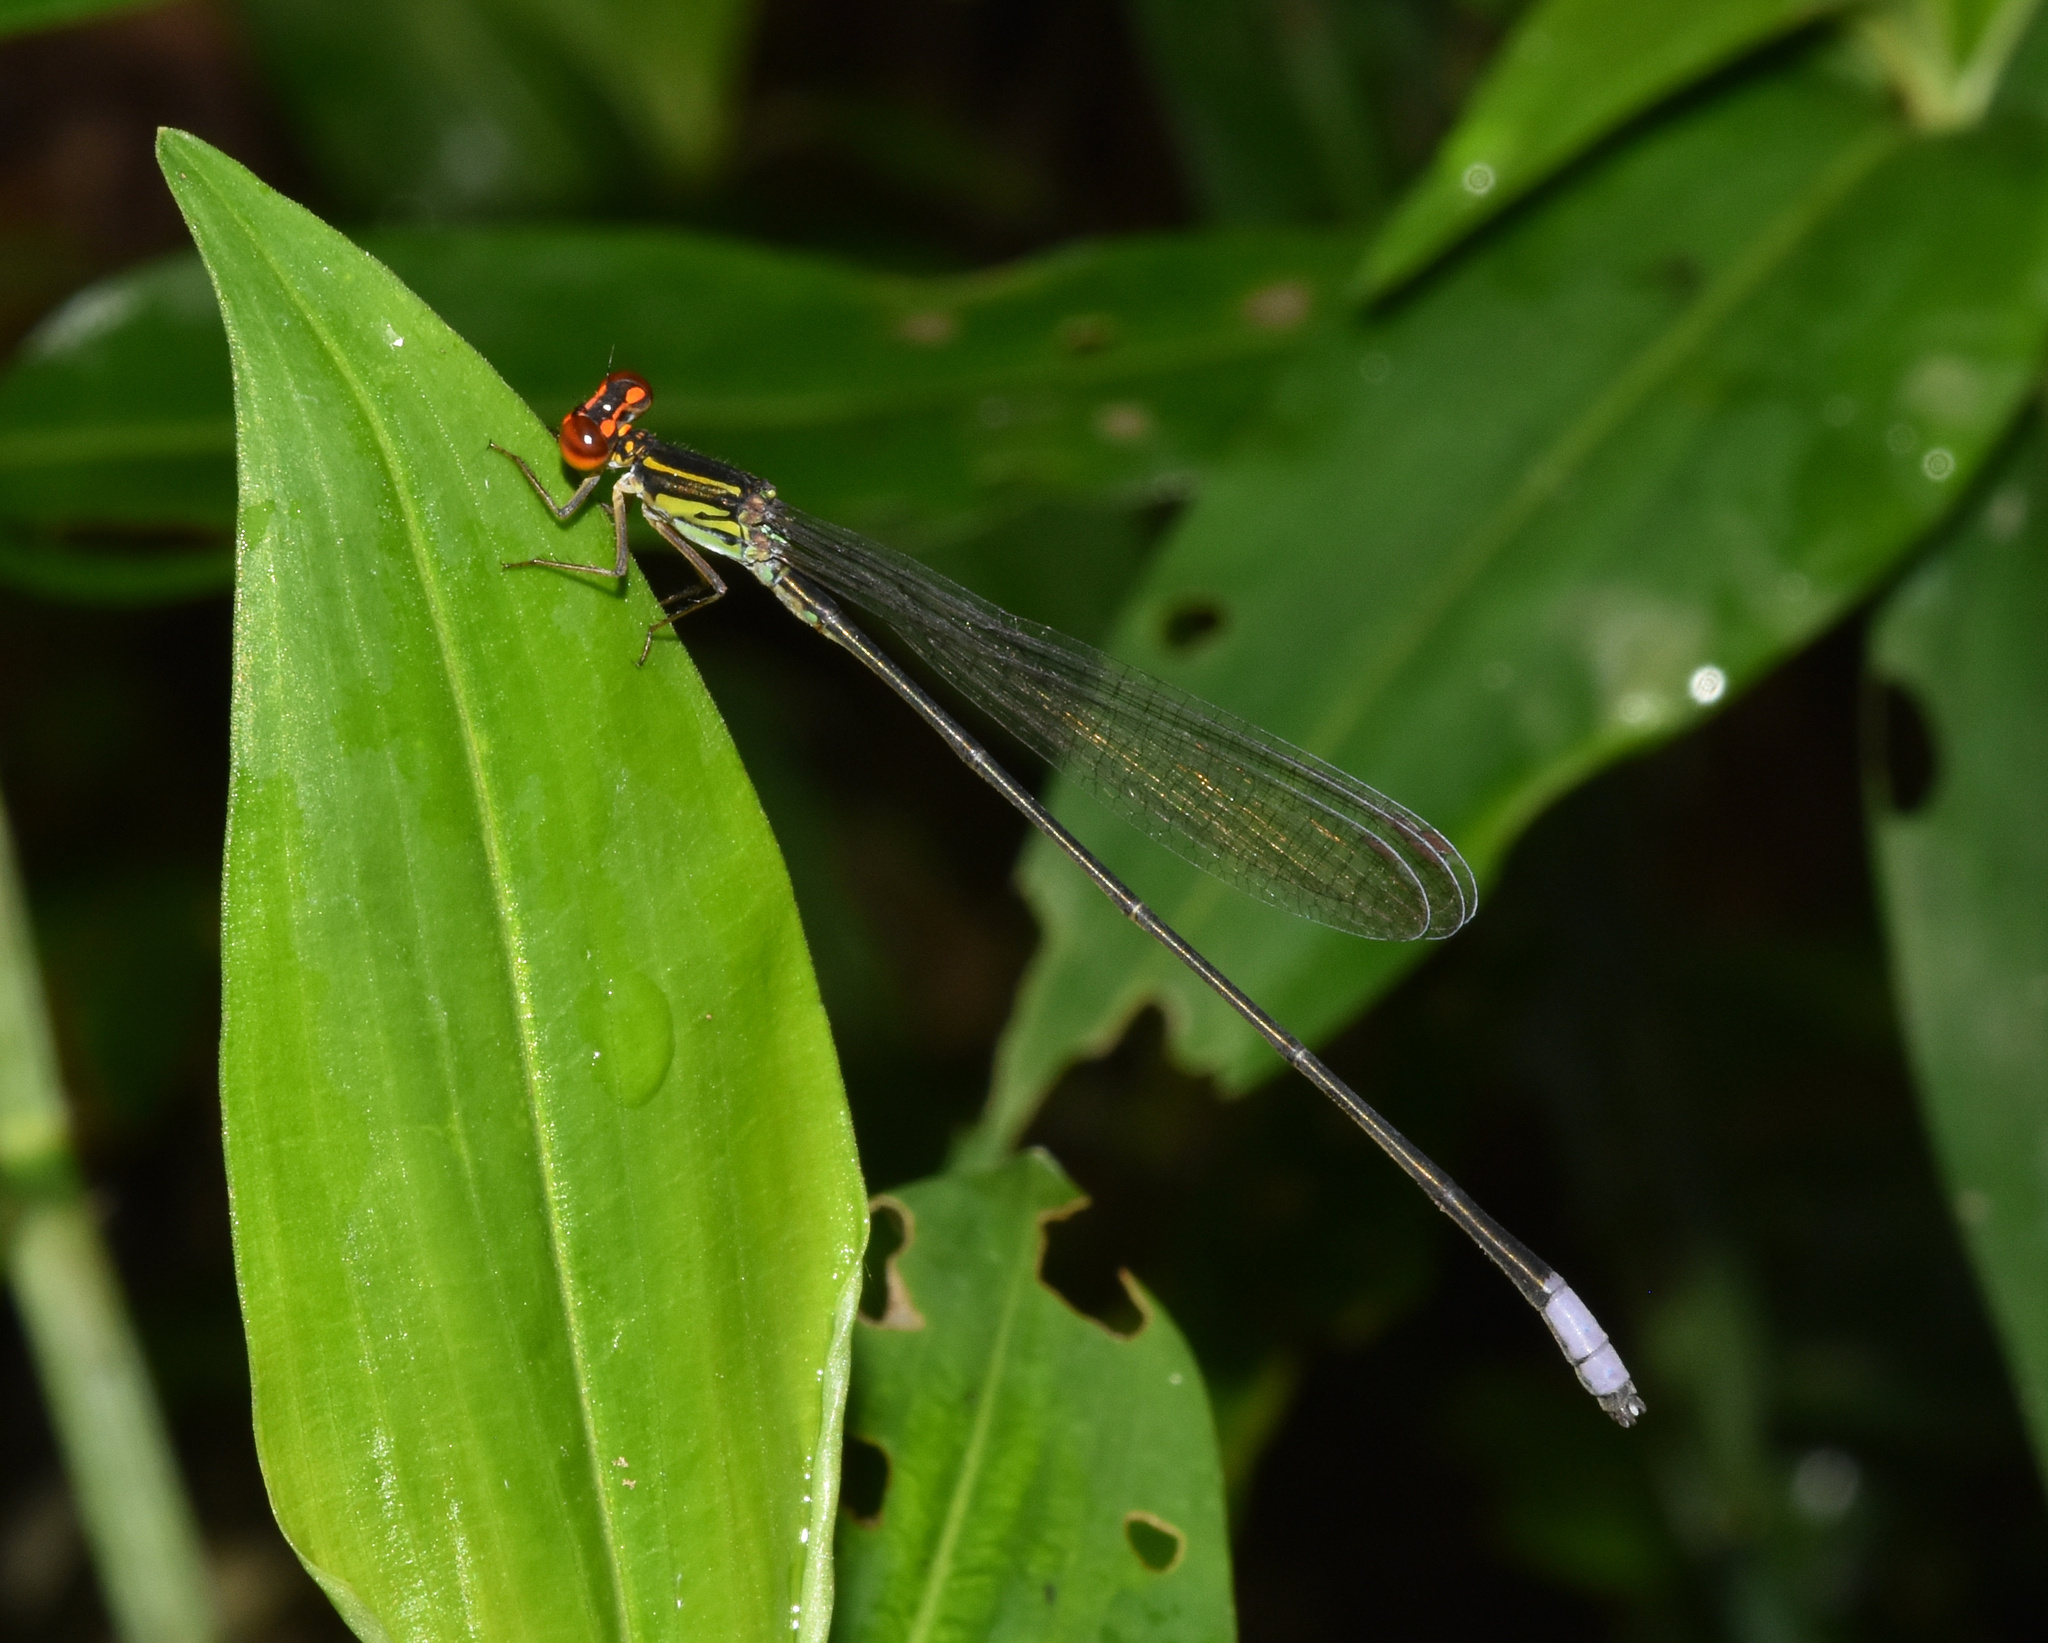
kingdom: Animalia
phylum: Arthropoda
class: Insecta
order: Odonata
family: Coenagrionidae
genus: Pseudagrion
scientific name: Pseudagrion hageni
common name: Painted sprite
